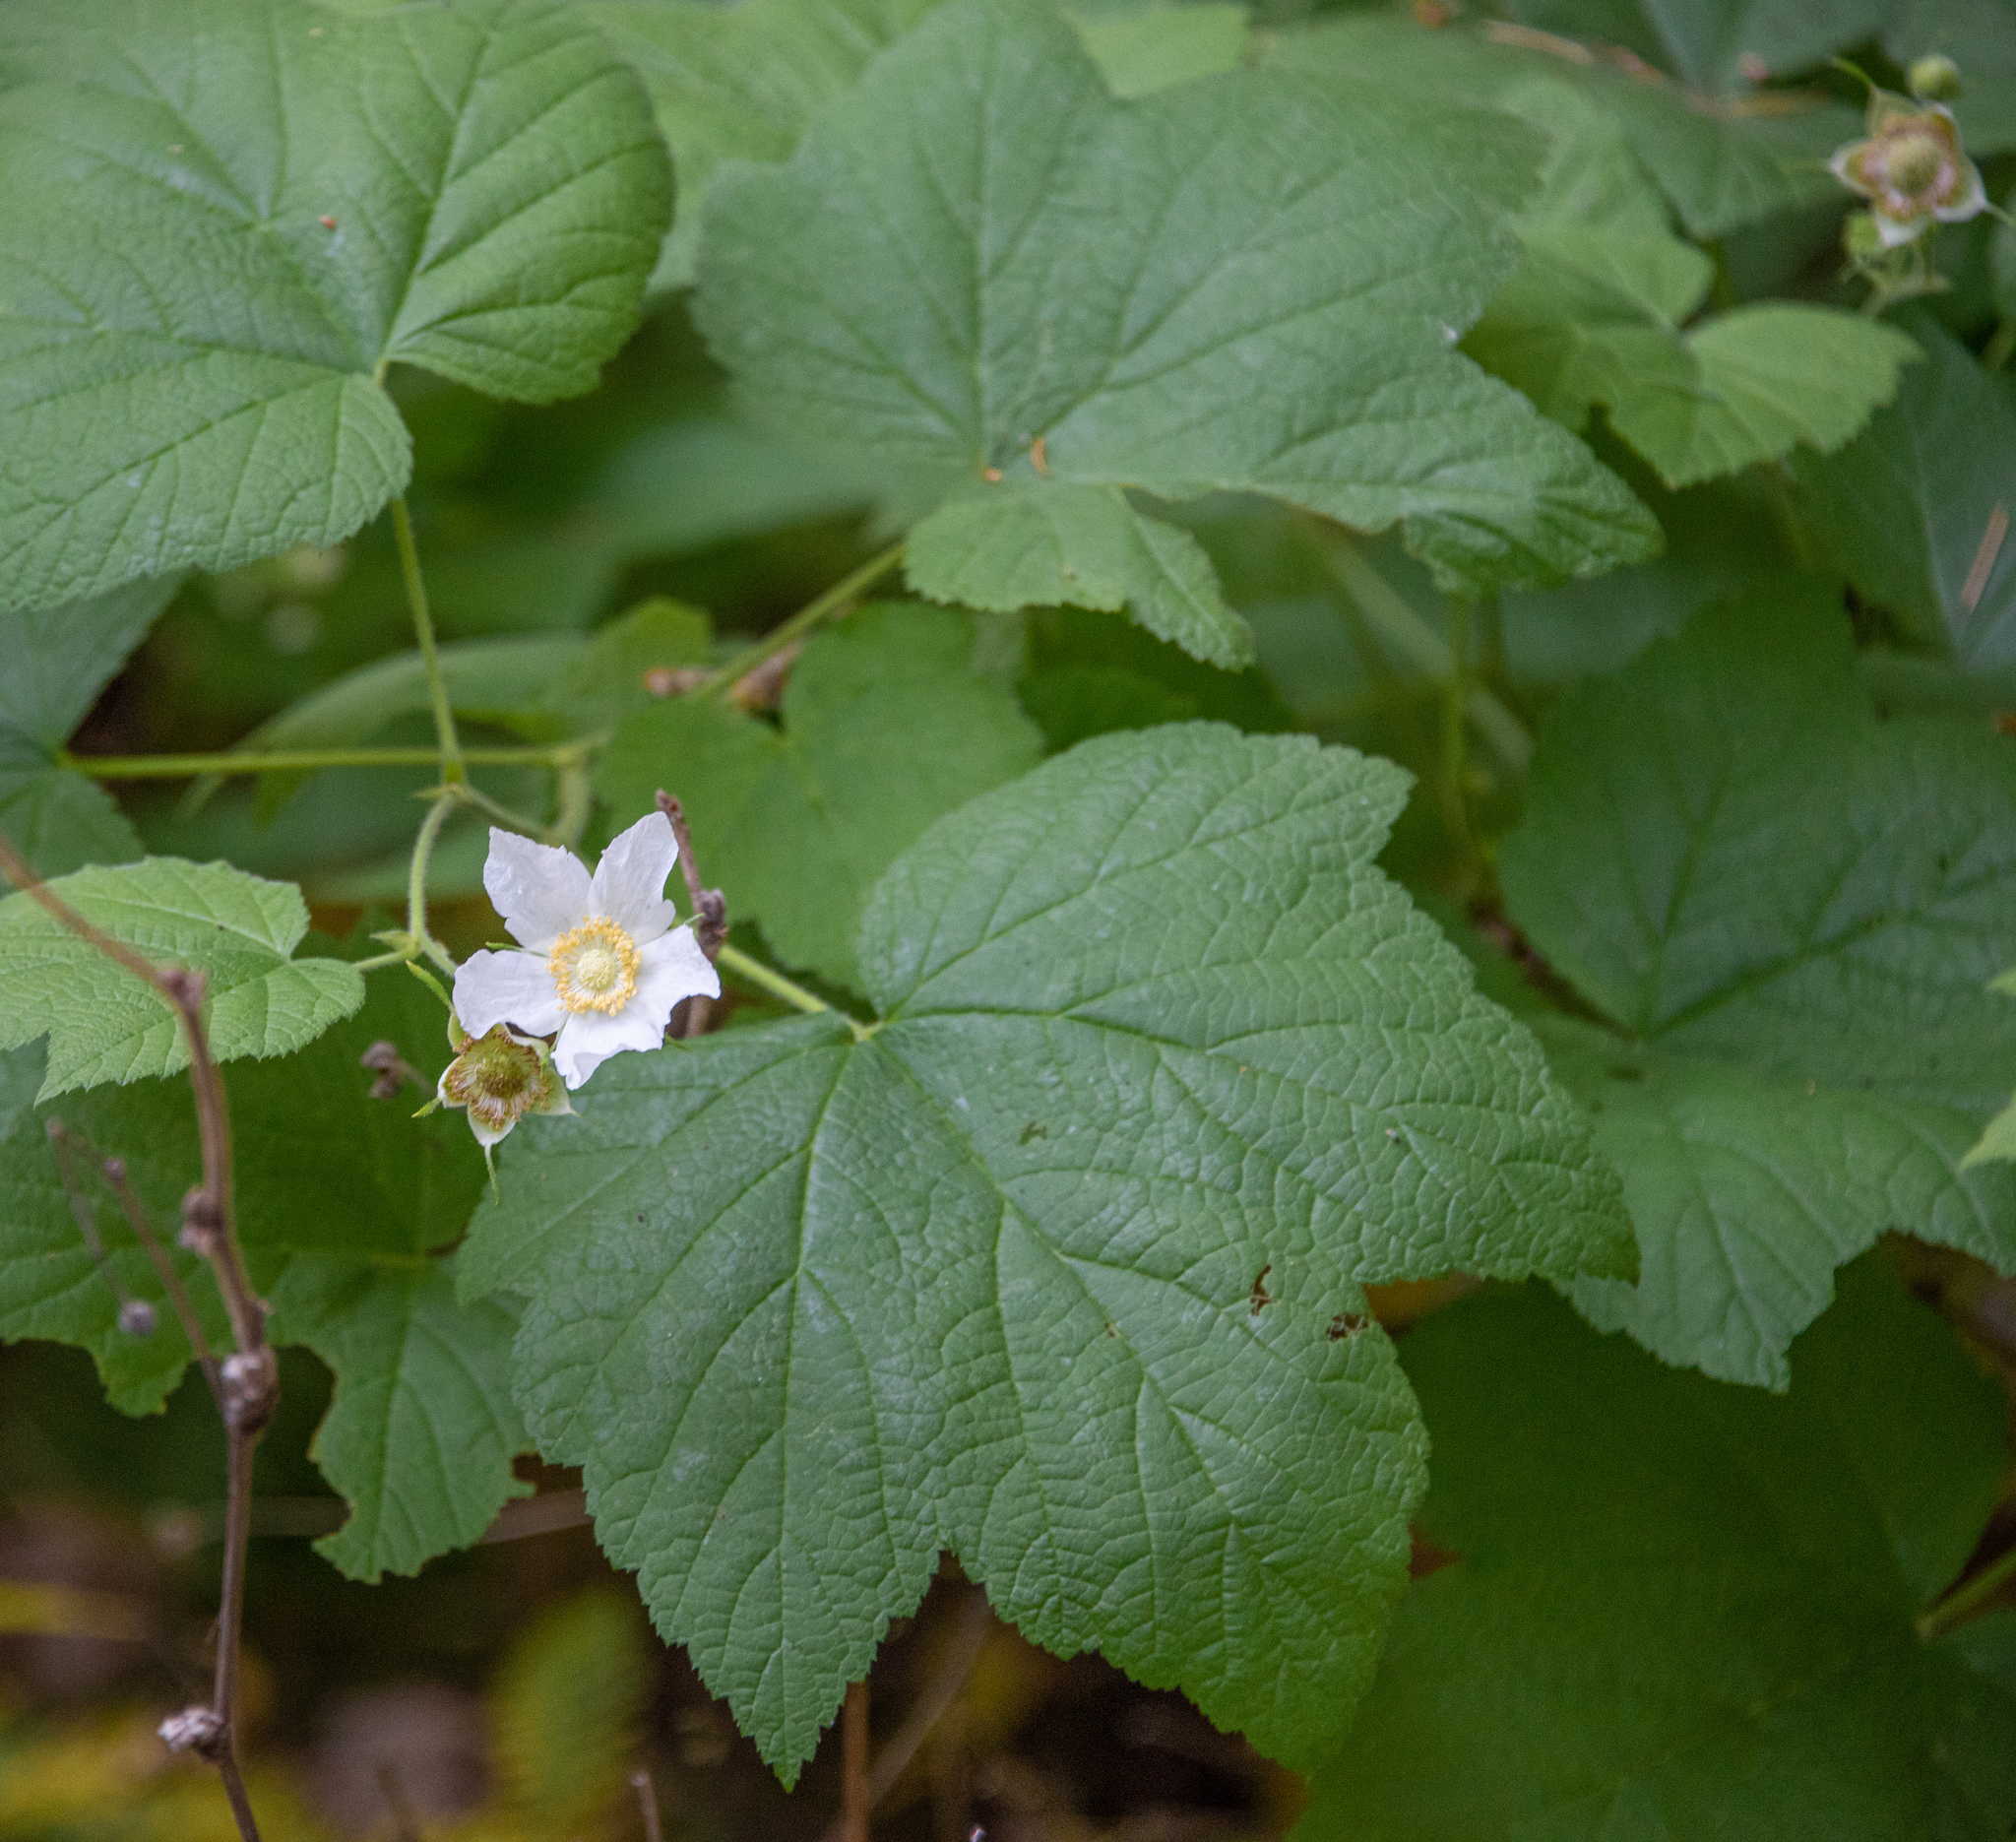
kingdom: Plantae
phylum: Tracheophyta
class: Magnoliopsida
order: Rosales
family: Rosaceae
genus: Rubus
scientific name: Rubus parviflorus
